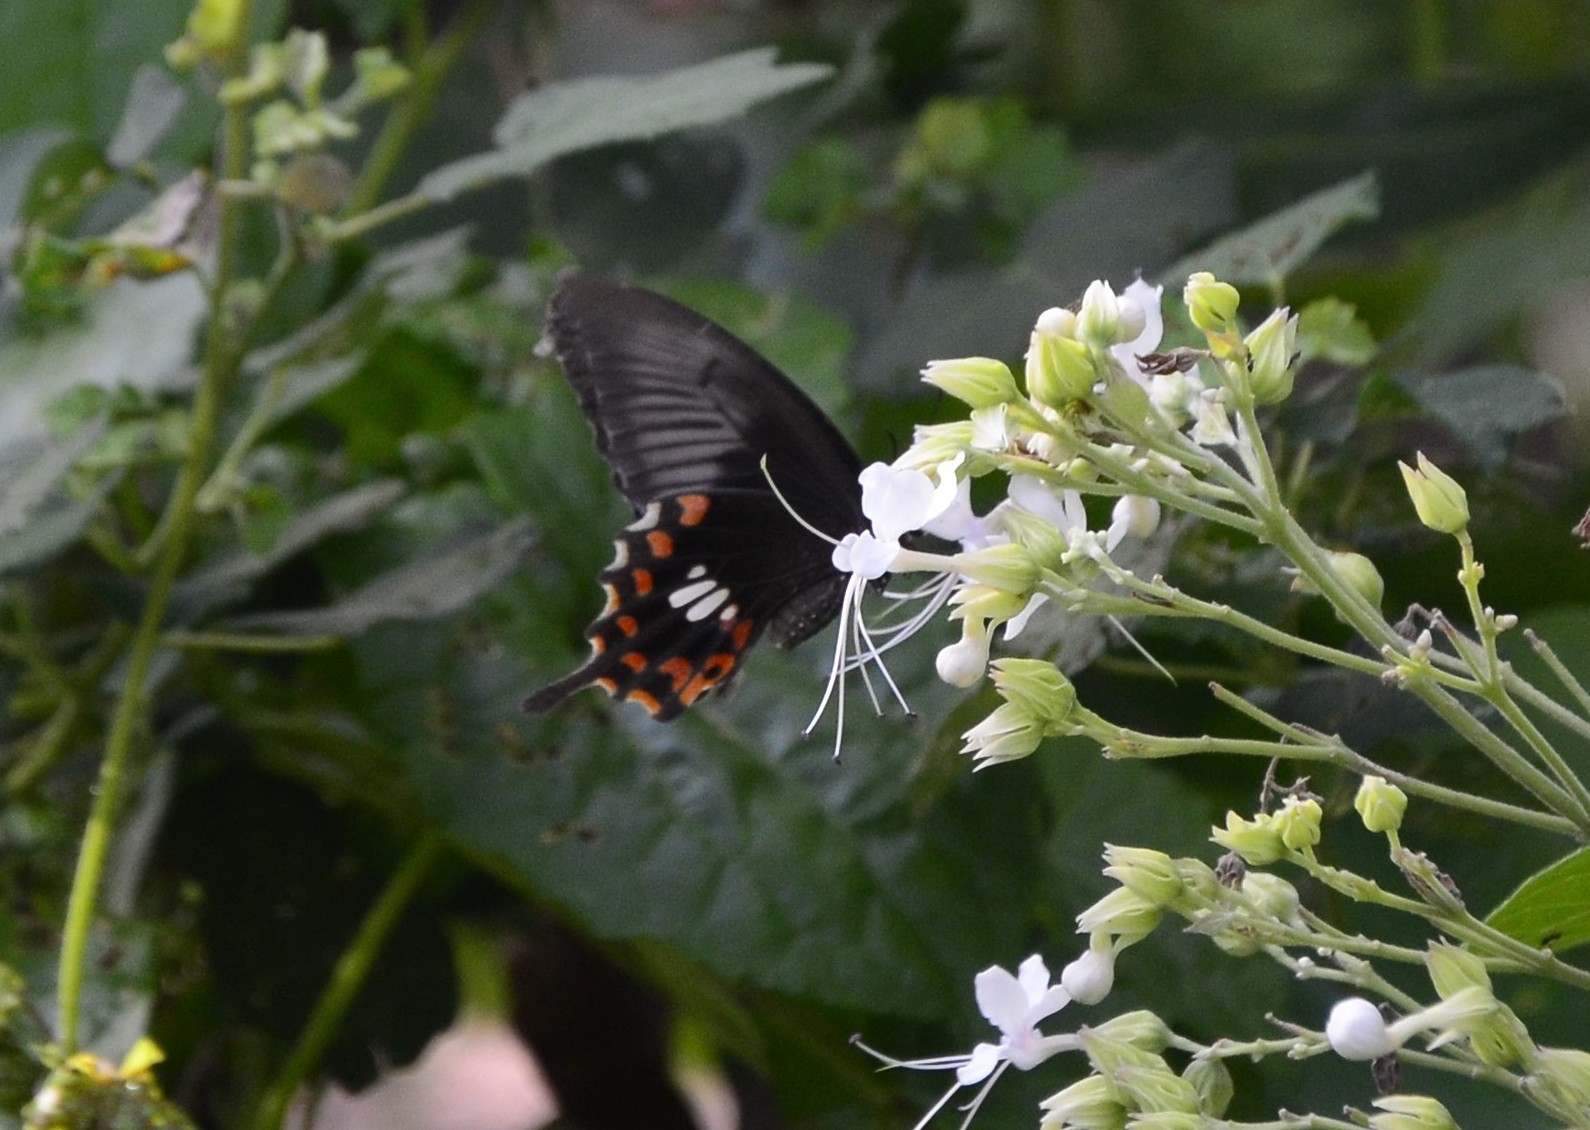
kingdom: Animalia
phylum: Arthropoda
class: Insecta
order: Lepidoptera
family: Papilionidae
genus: Papilio
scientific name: Papilio polytes
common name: Common mormon
